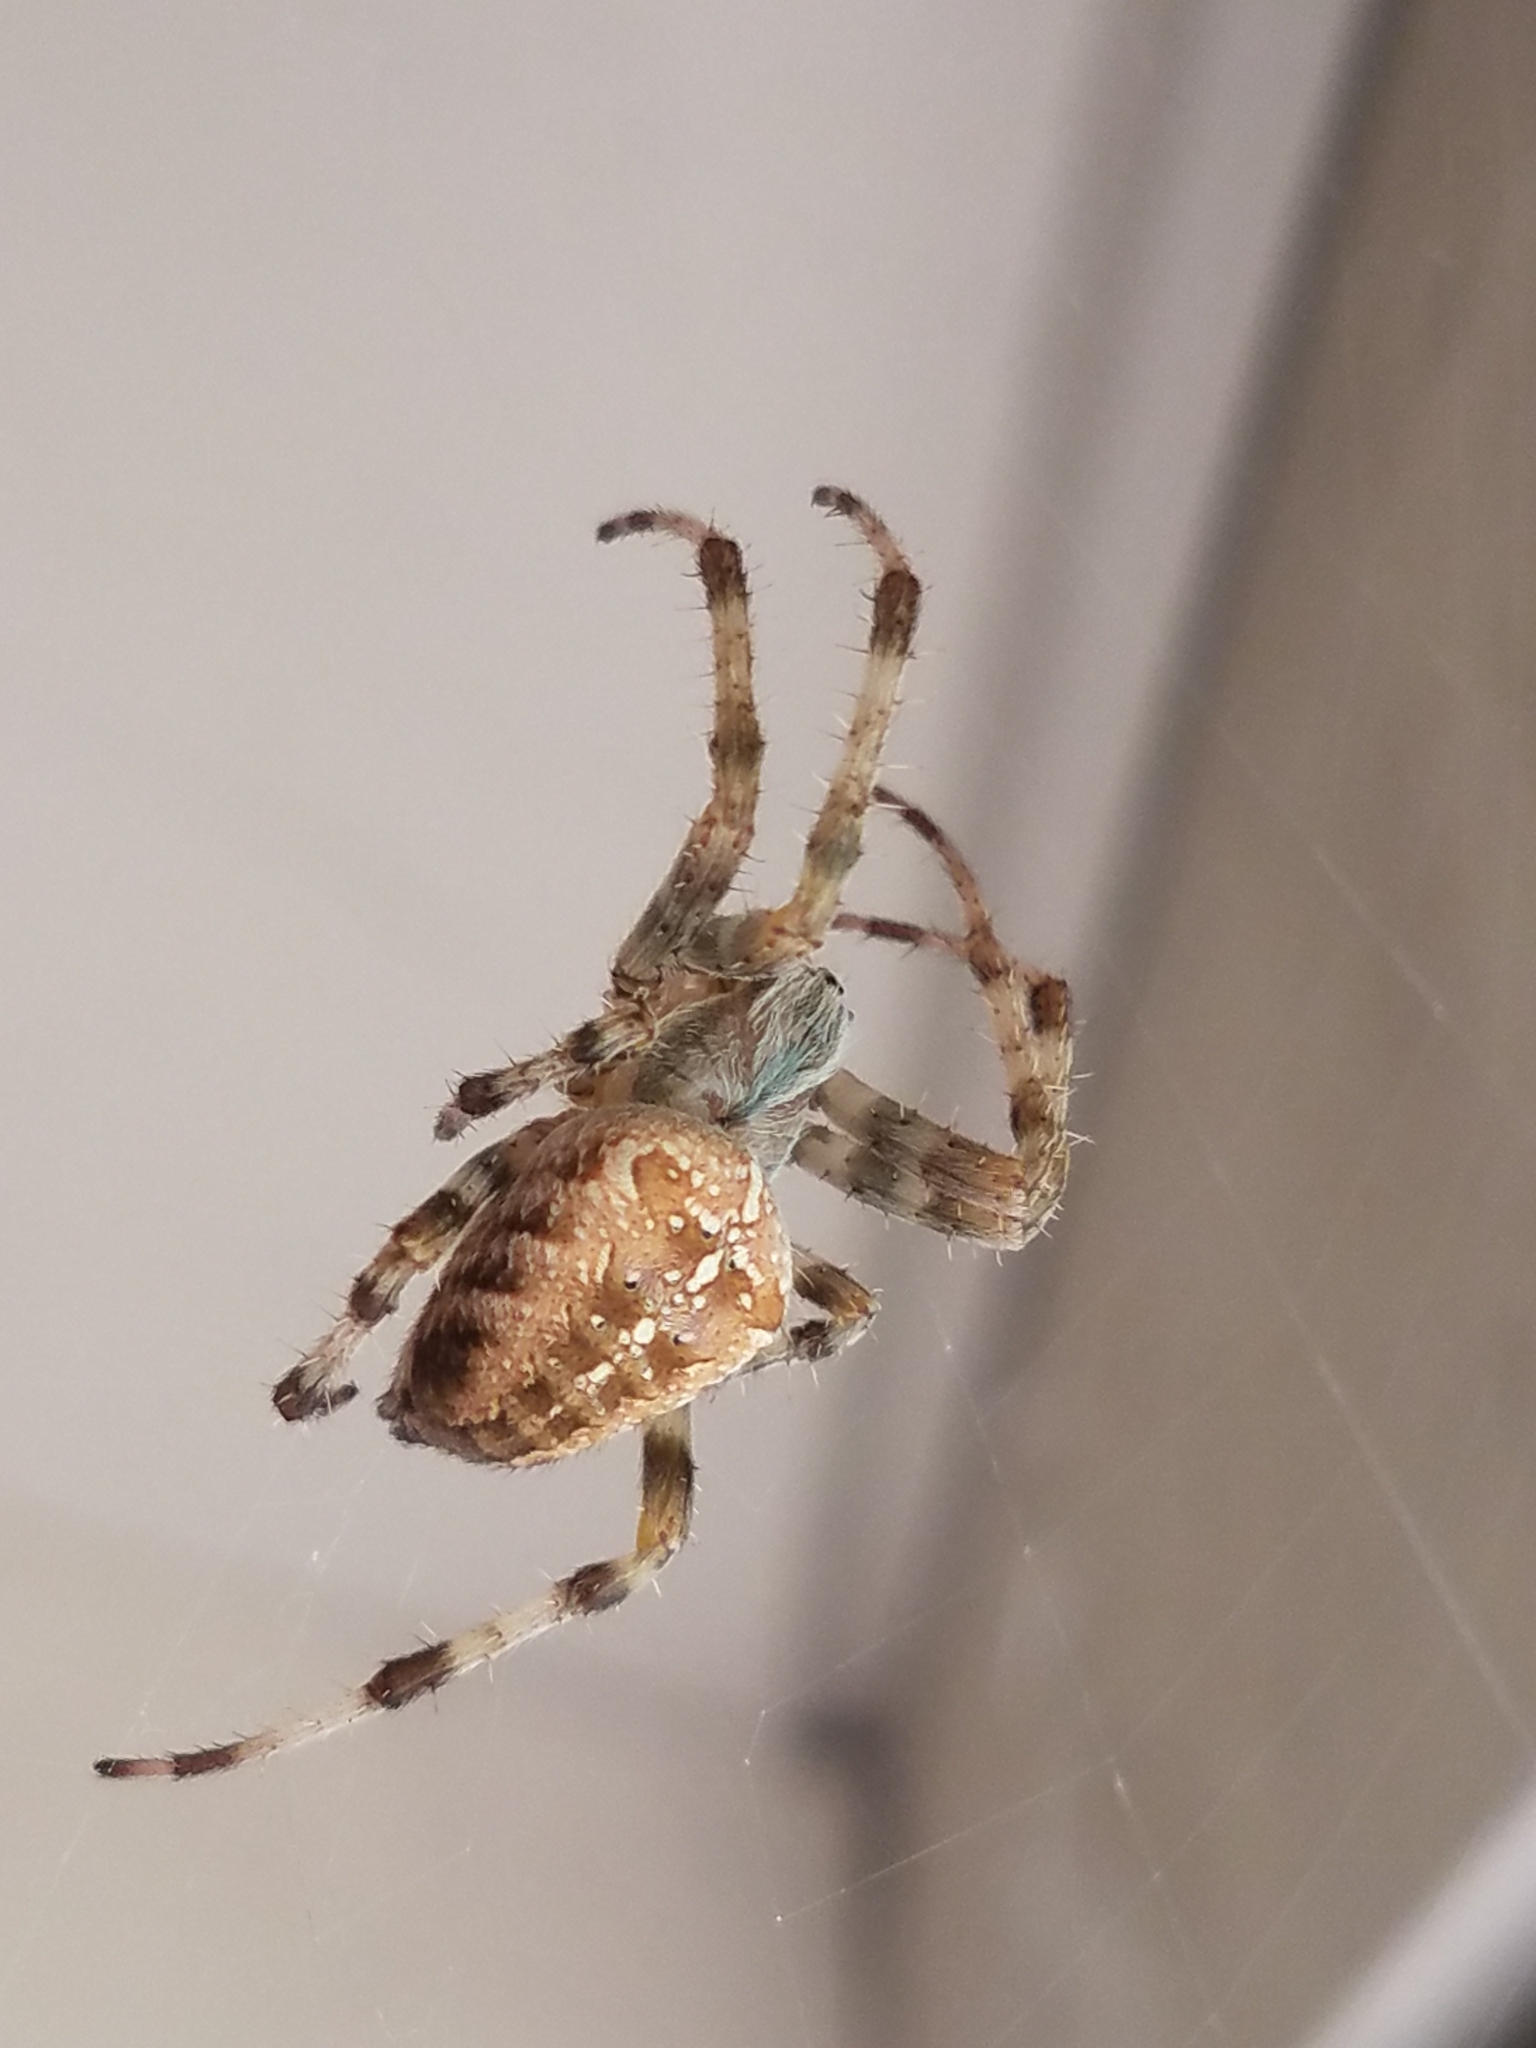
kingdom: Animalia
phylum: Arthropoda
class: Arachnida
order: Araneae
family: Araneidae
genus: Araneus
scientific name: Araneus diadematus
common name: Cross orbweaver
